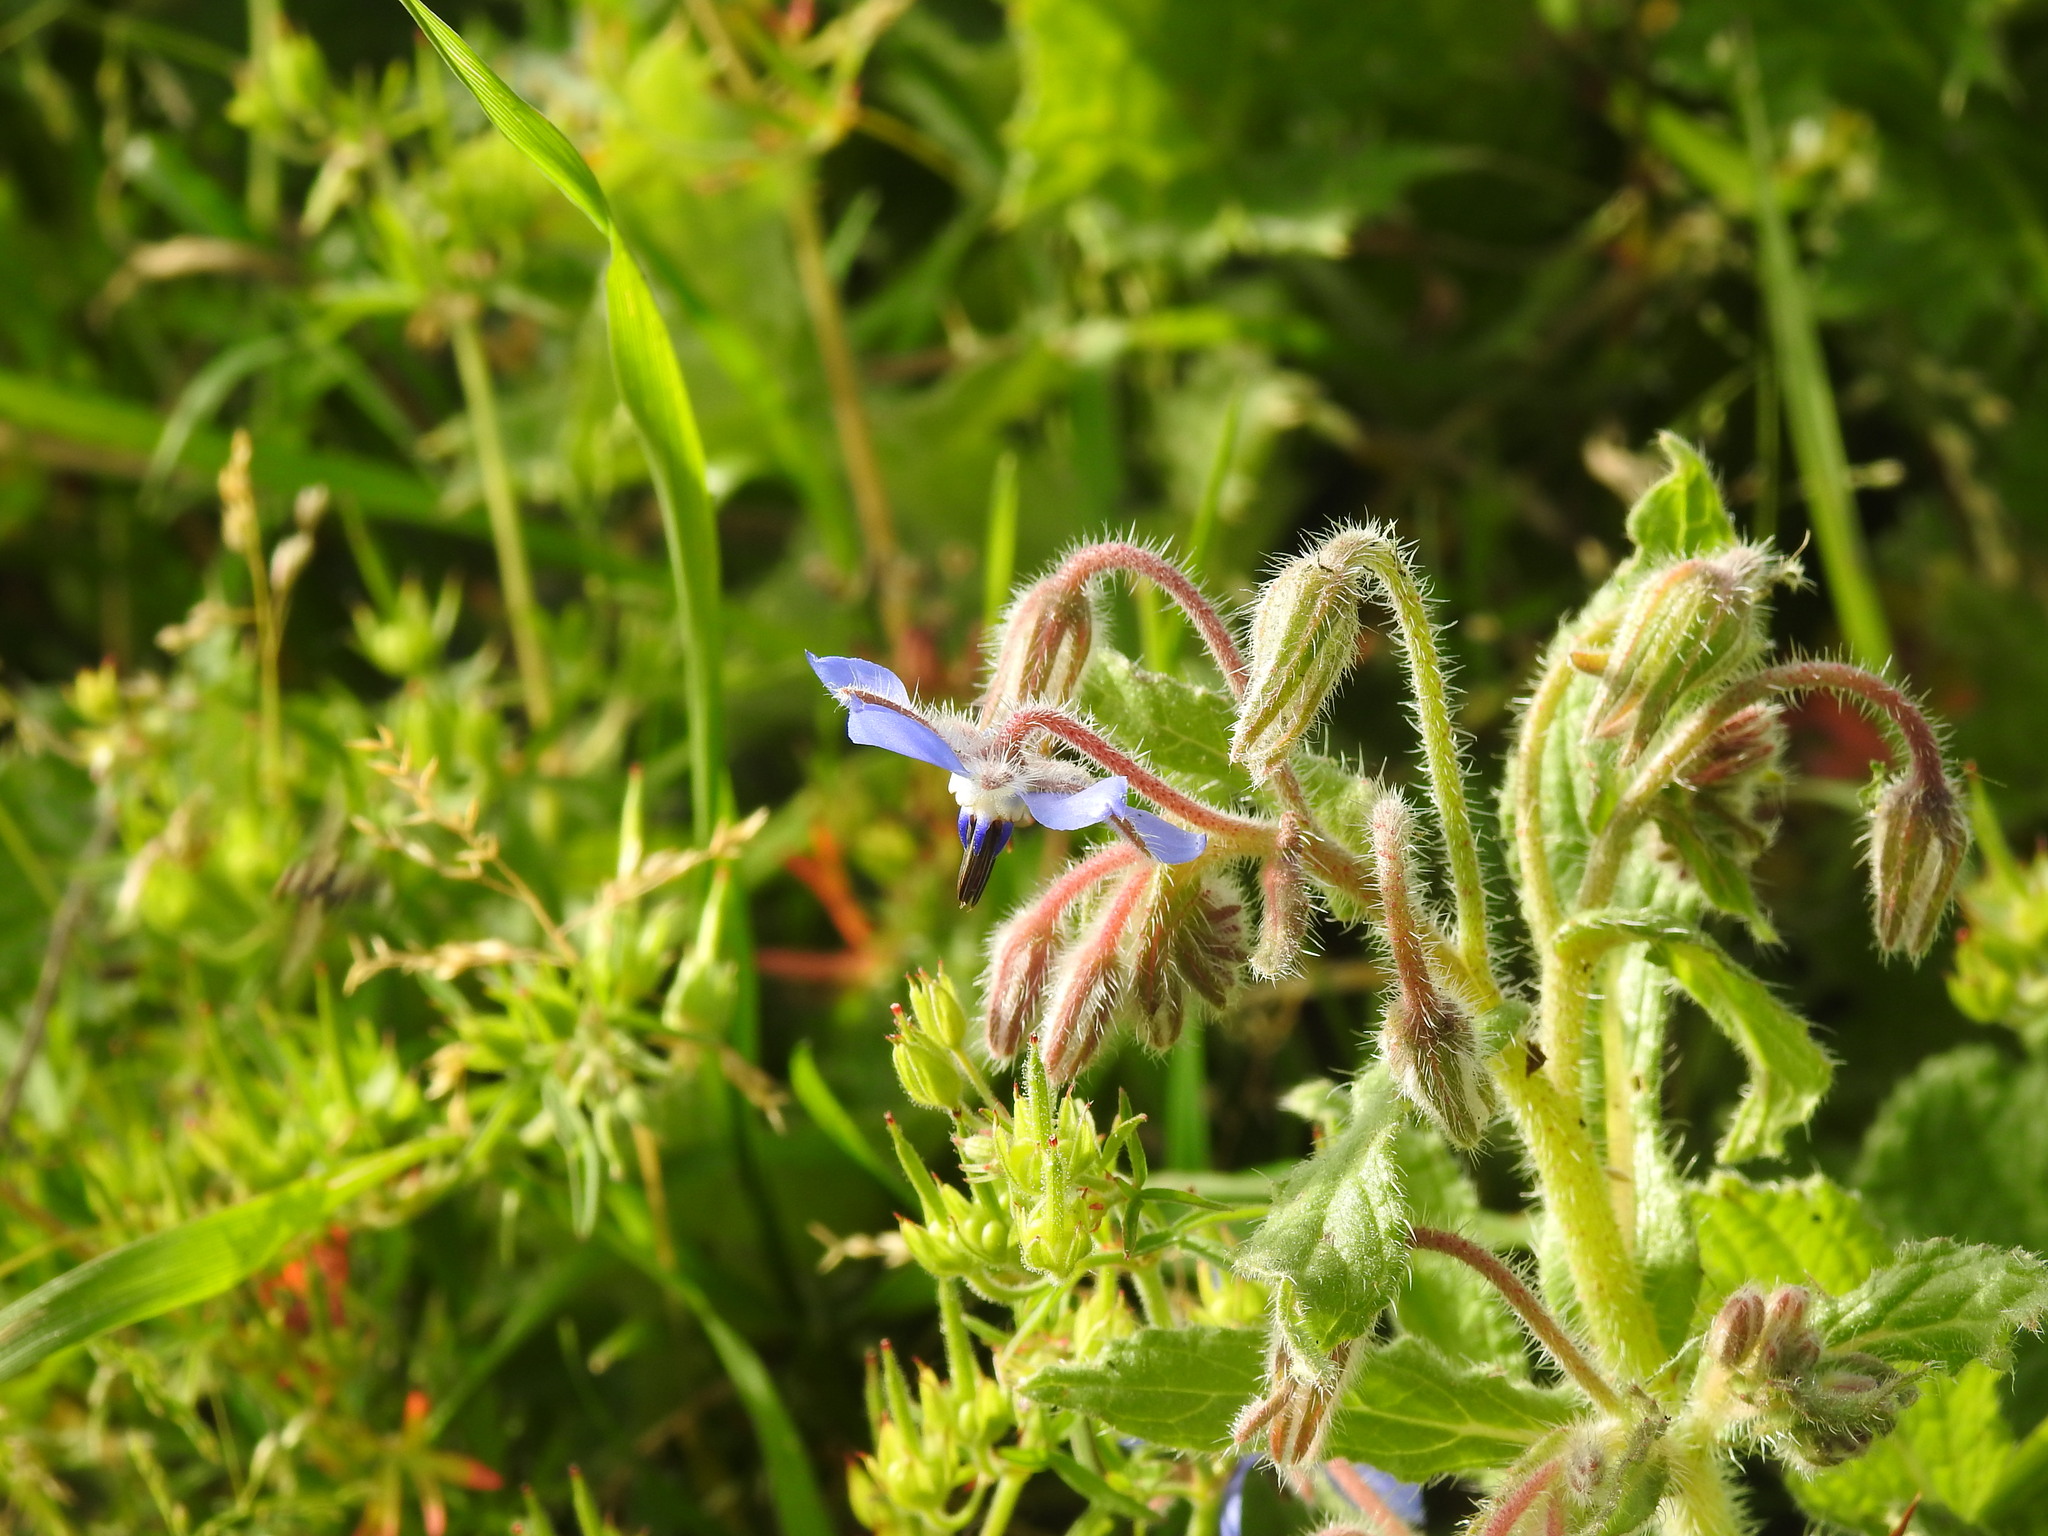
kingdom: Plantae
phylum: Tracheophyta
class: Magnoliopsida
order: Boraginales
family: Boraginaceae
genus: Borago
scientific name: Borago officinalis
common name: Borage
